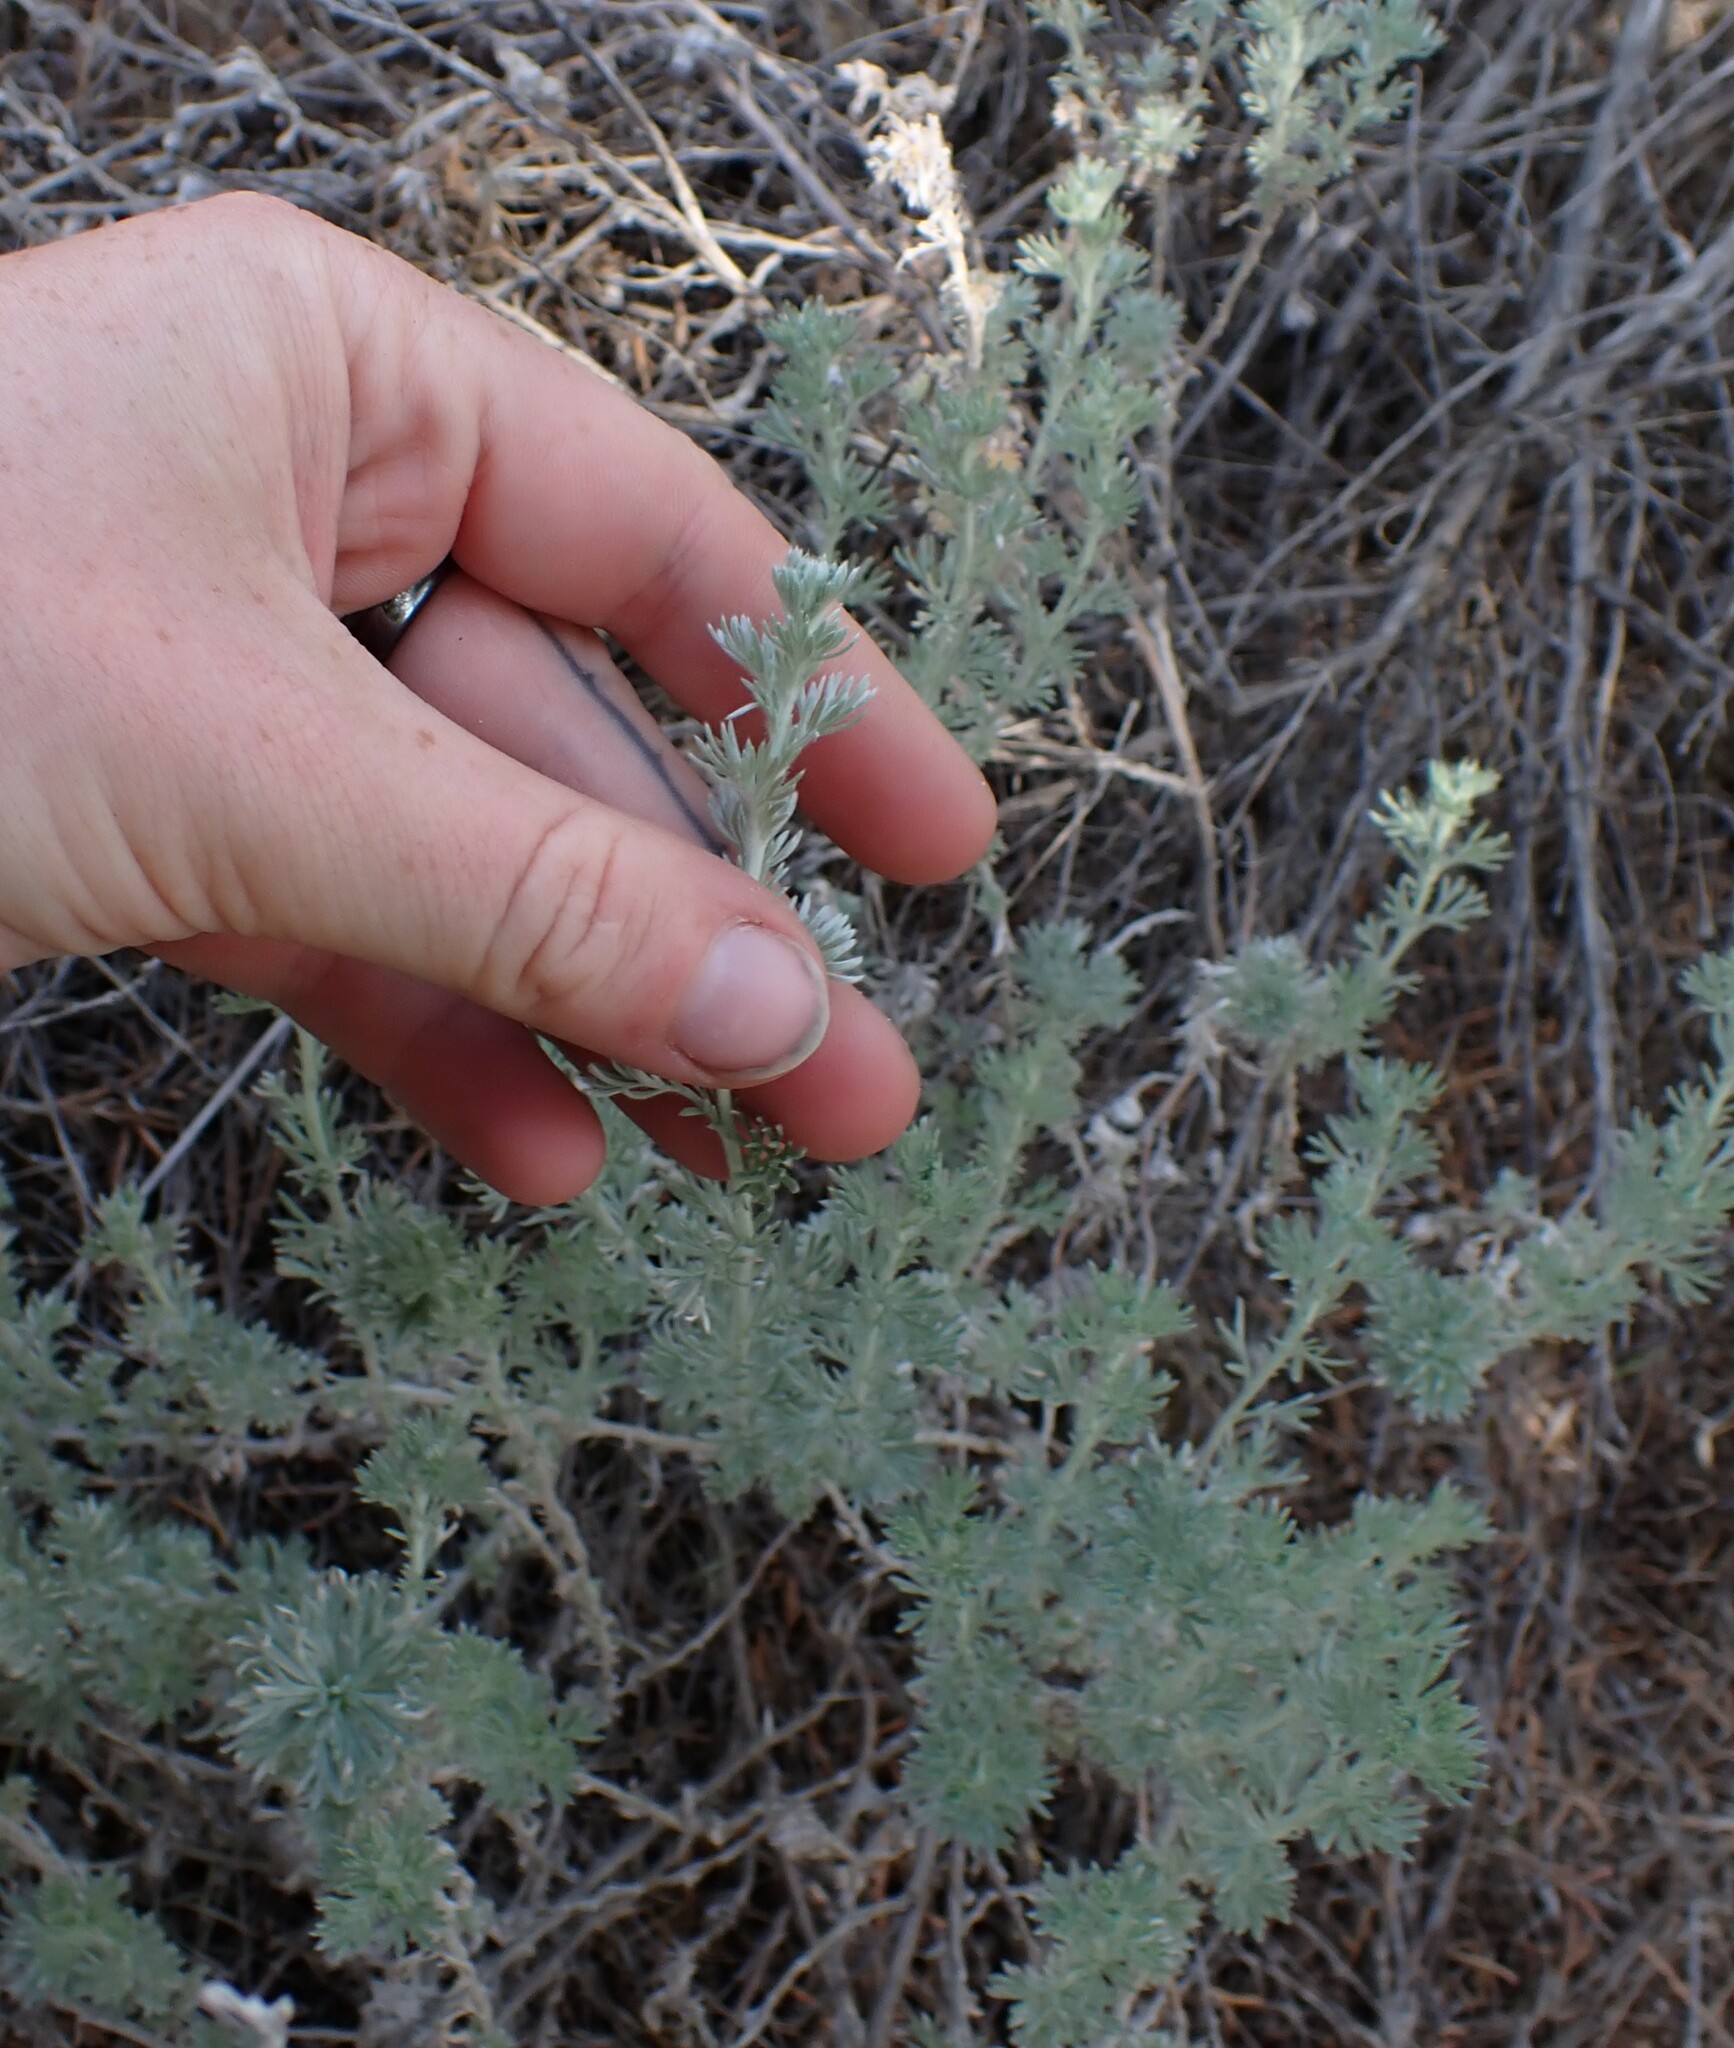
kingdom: Plantae
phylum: Tracheophyta
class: Magnoliopsida
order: Asterales
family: Asteraceae
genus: Artemisia
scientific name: Artemisia frigida
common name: Prairie sagewort
